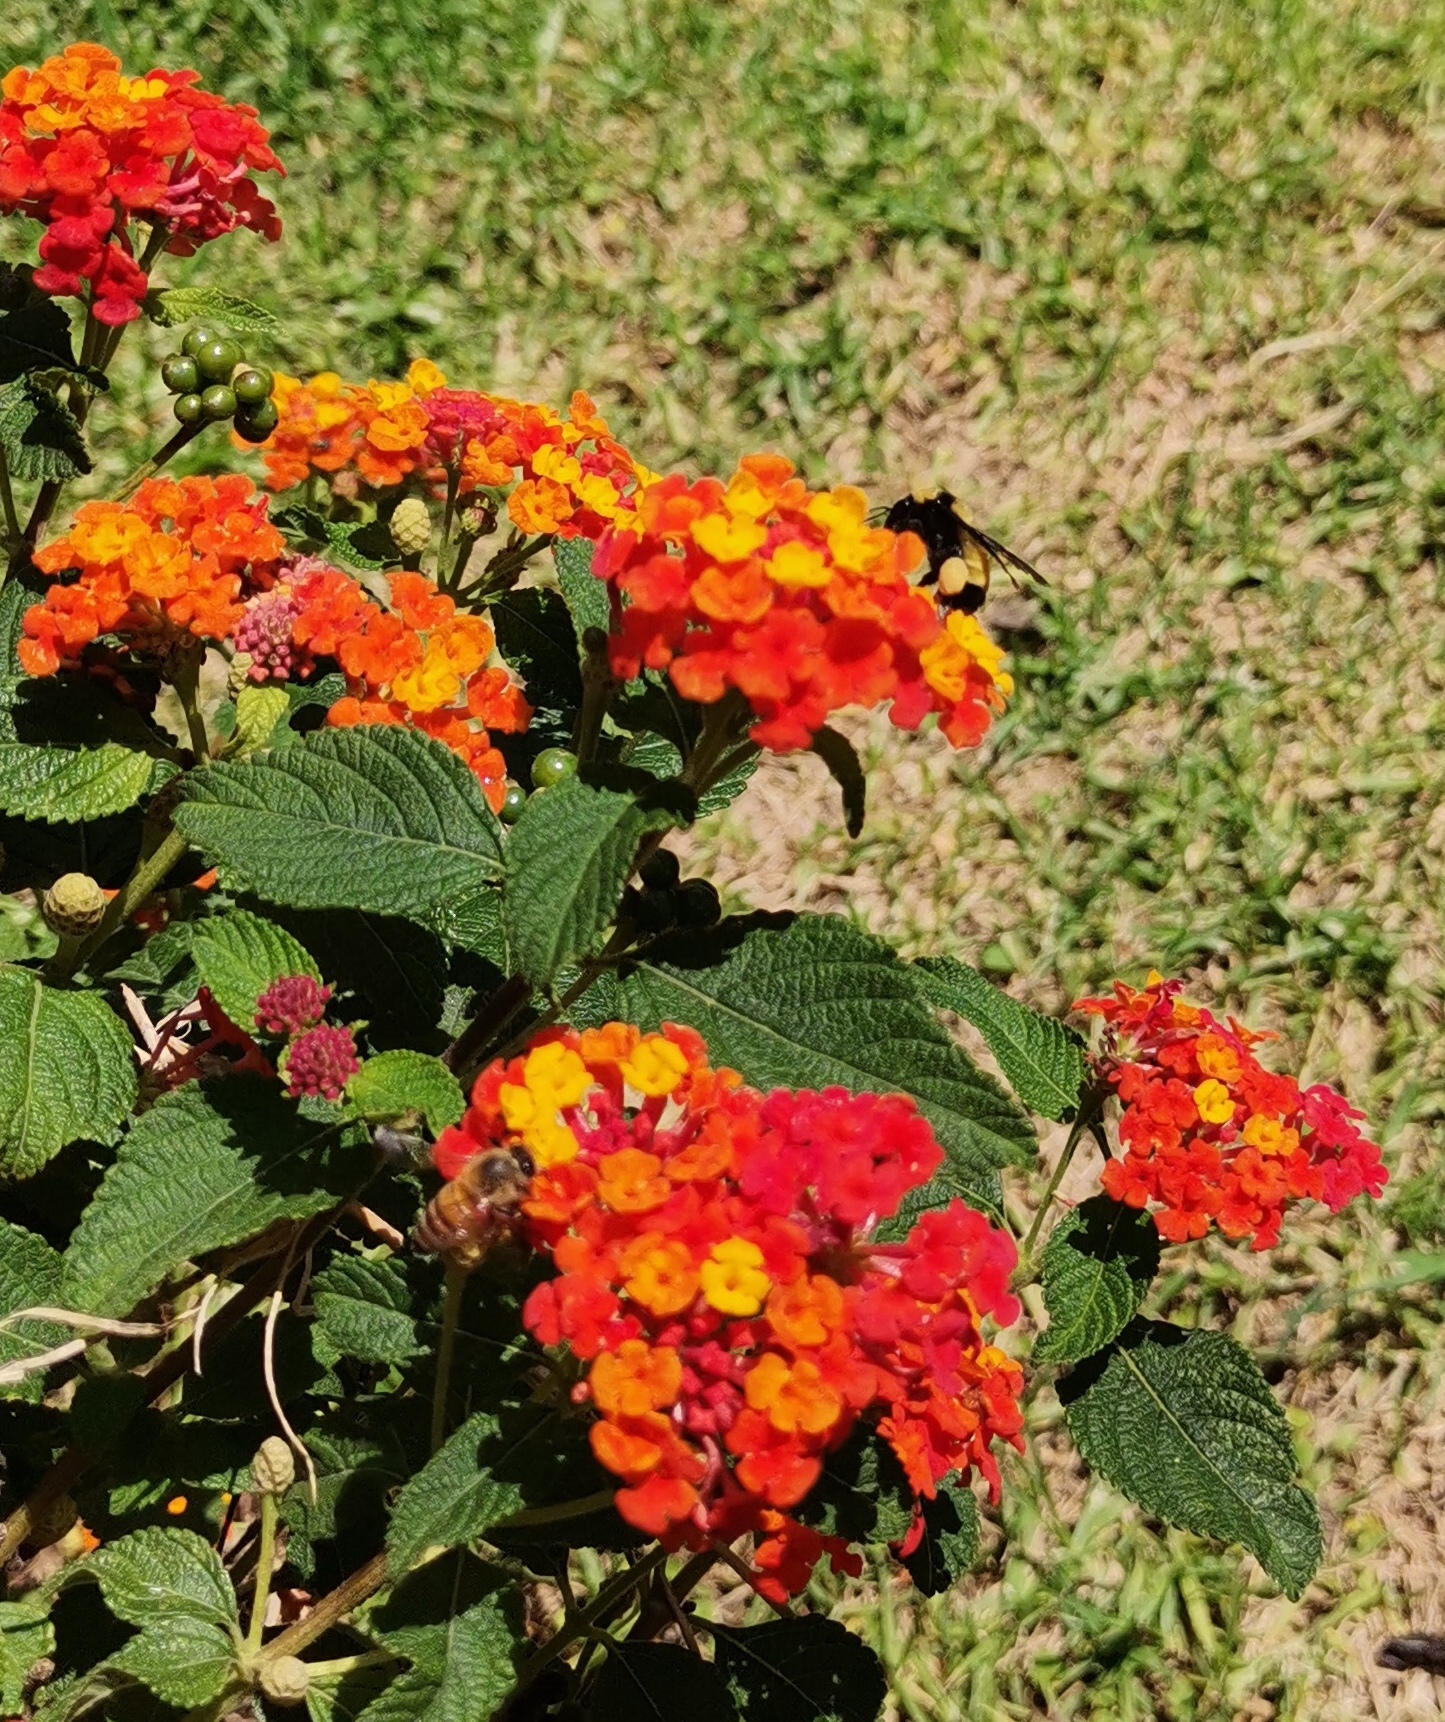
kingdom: Animalia
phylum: Arthropoda
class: Insecta
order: Hymenoptera
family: Apidae
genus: Bombus
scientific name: Bombus sonorus
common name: Sonoran bumble bee
